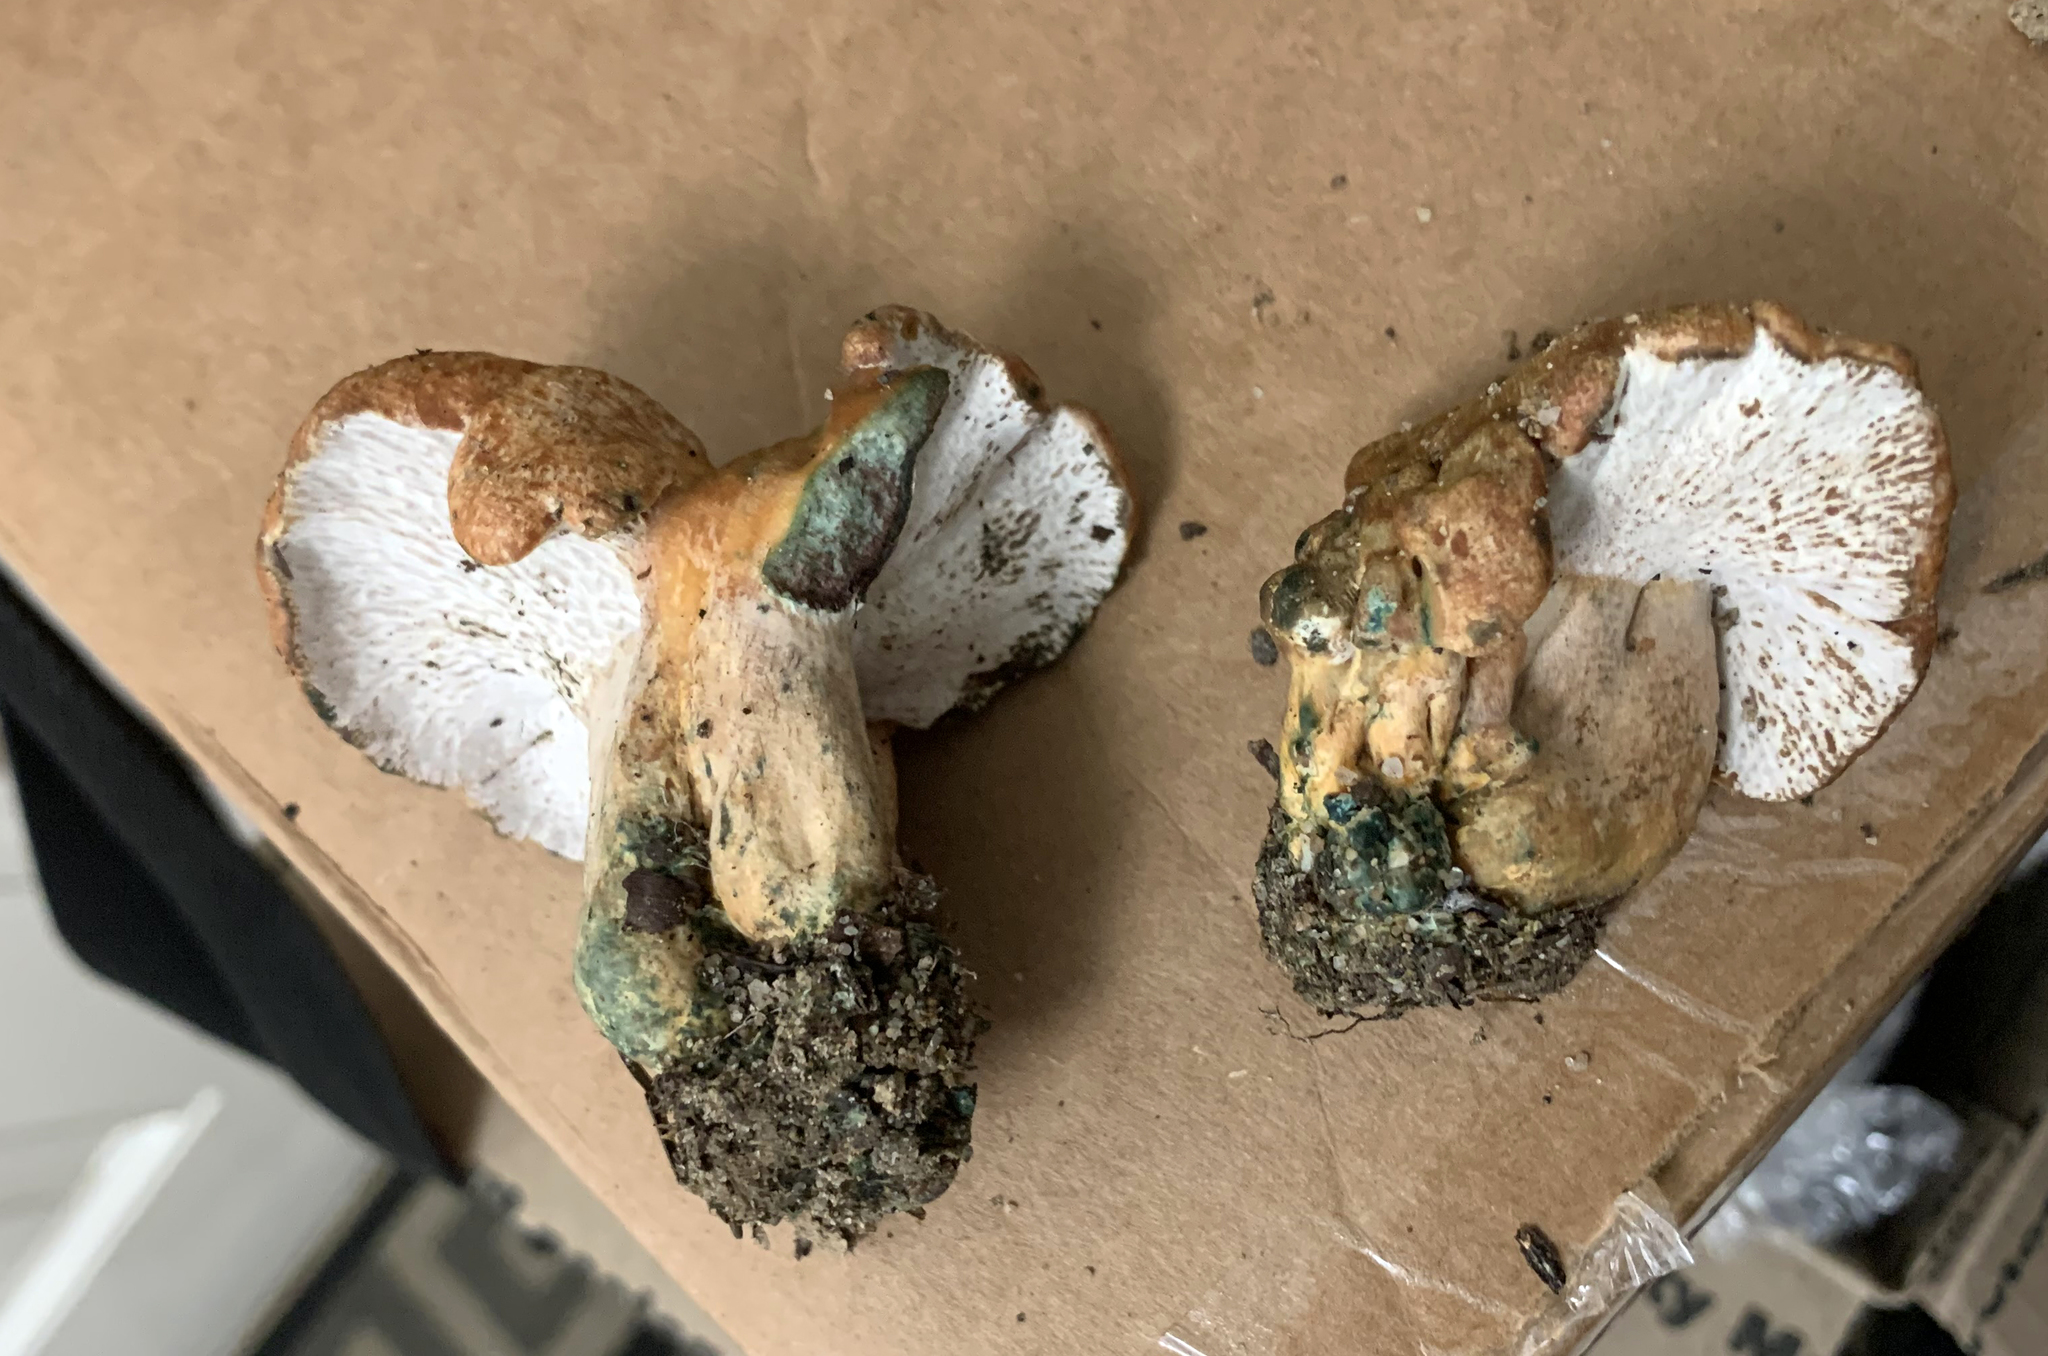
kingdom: Fungi
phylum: Basidiomycota
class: Agaricomycetes
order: Russulales
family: Russulaceae
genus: Lactarius
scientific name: Lactarius rubrilacteus
